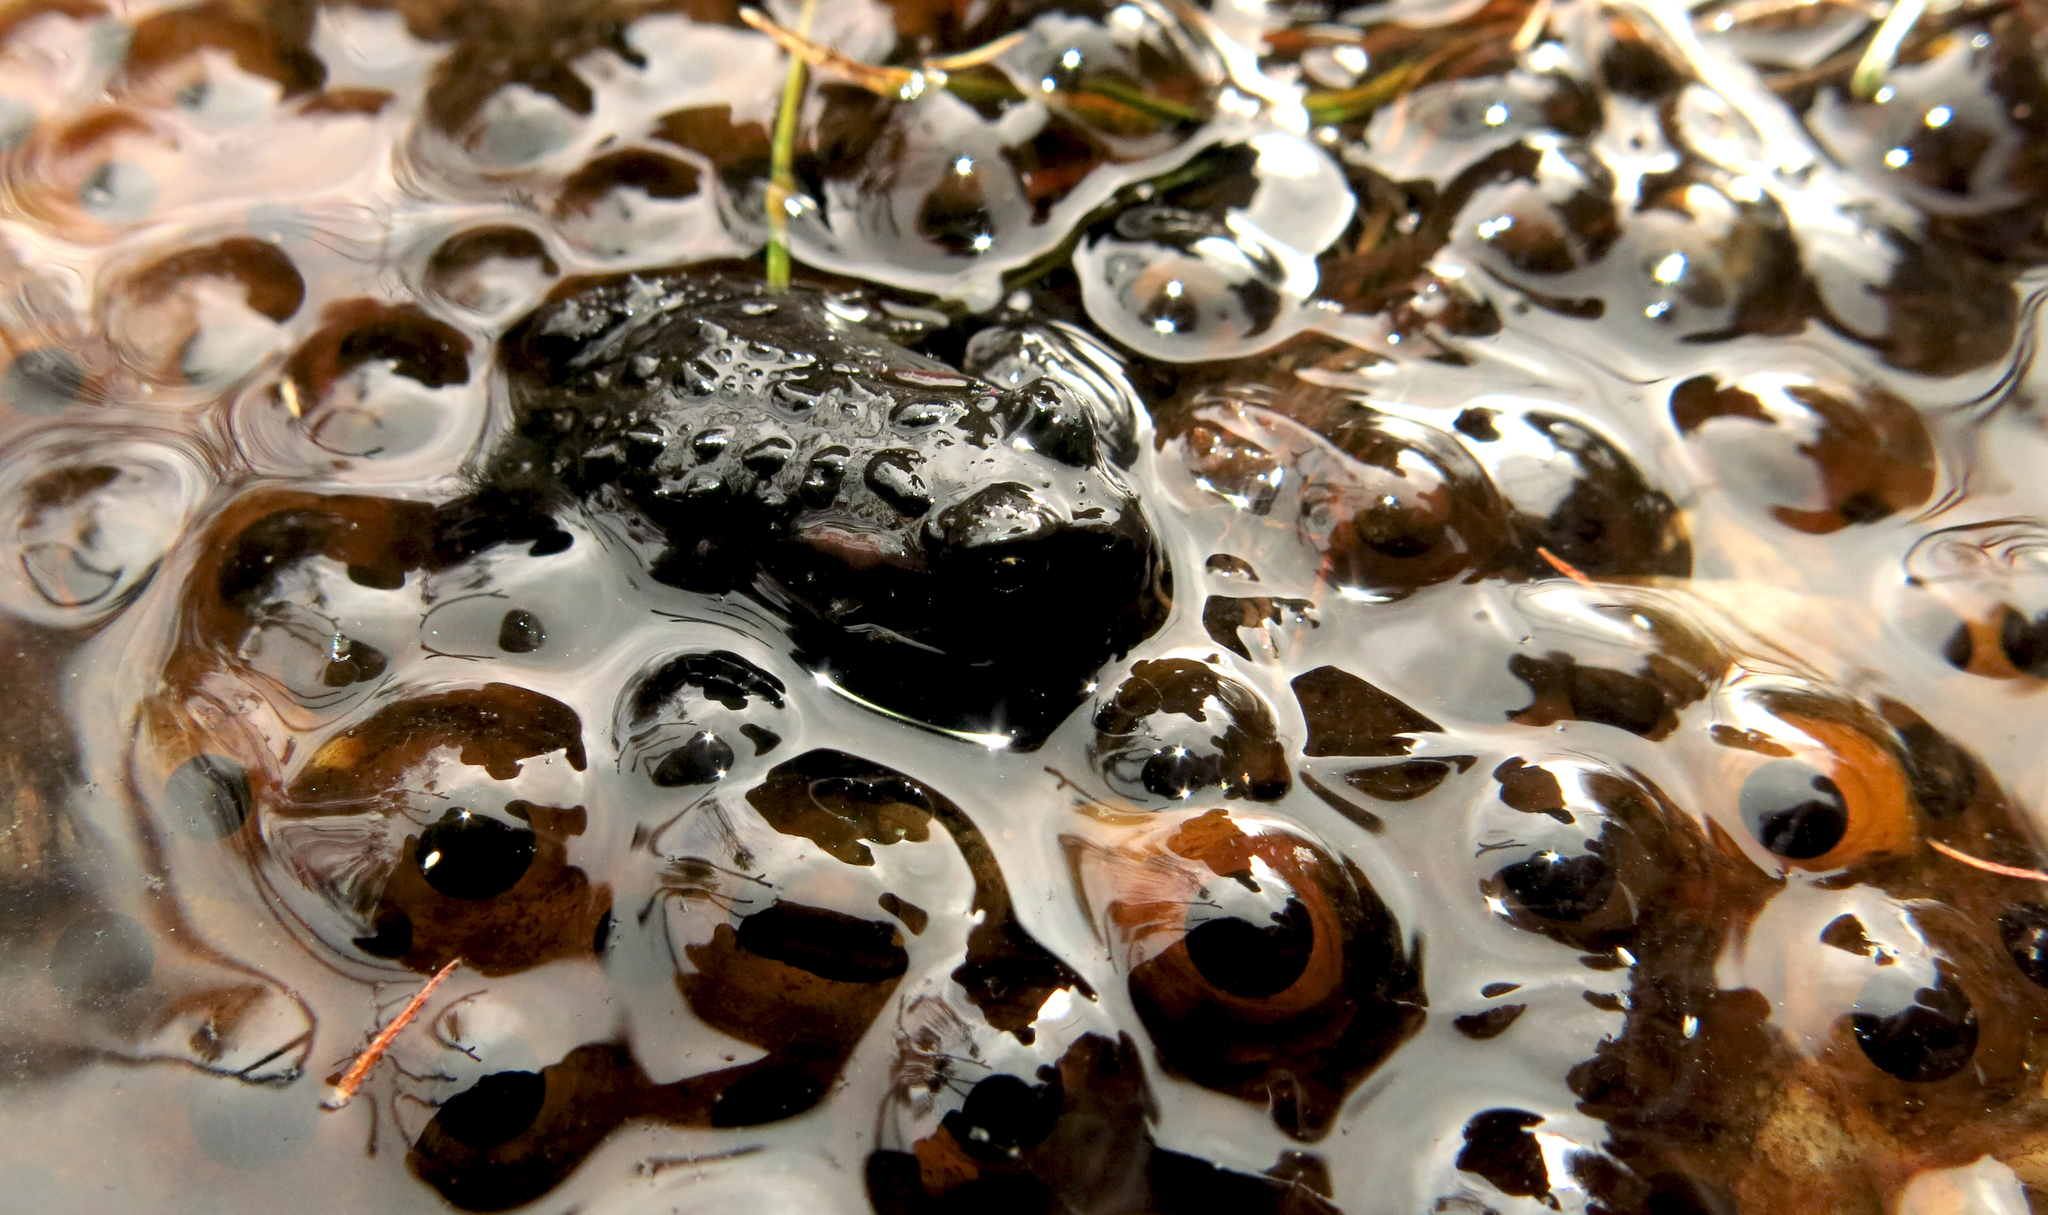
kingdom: Animalia
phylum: Chordata
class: Amphibia
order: Anura
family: Bufonidae
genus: Capensibufo
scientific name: Capensibufo selenophos
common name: Moonlight mountain toadlet
